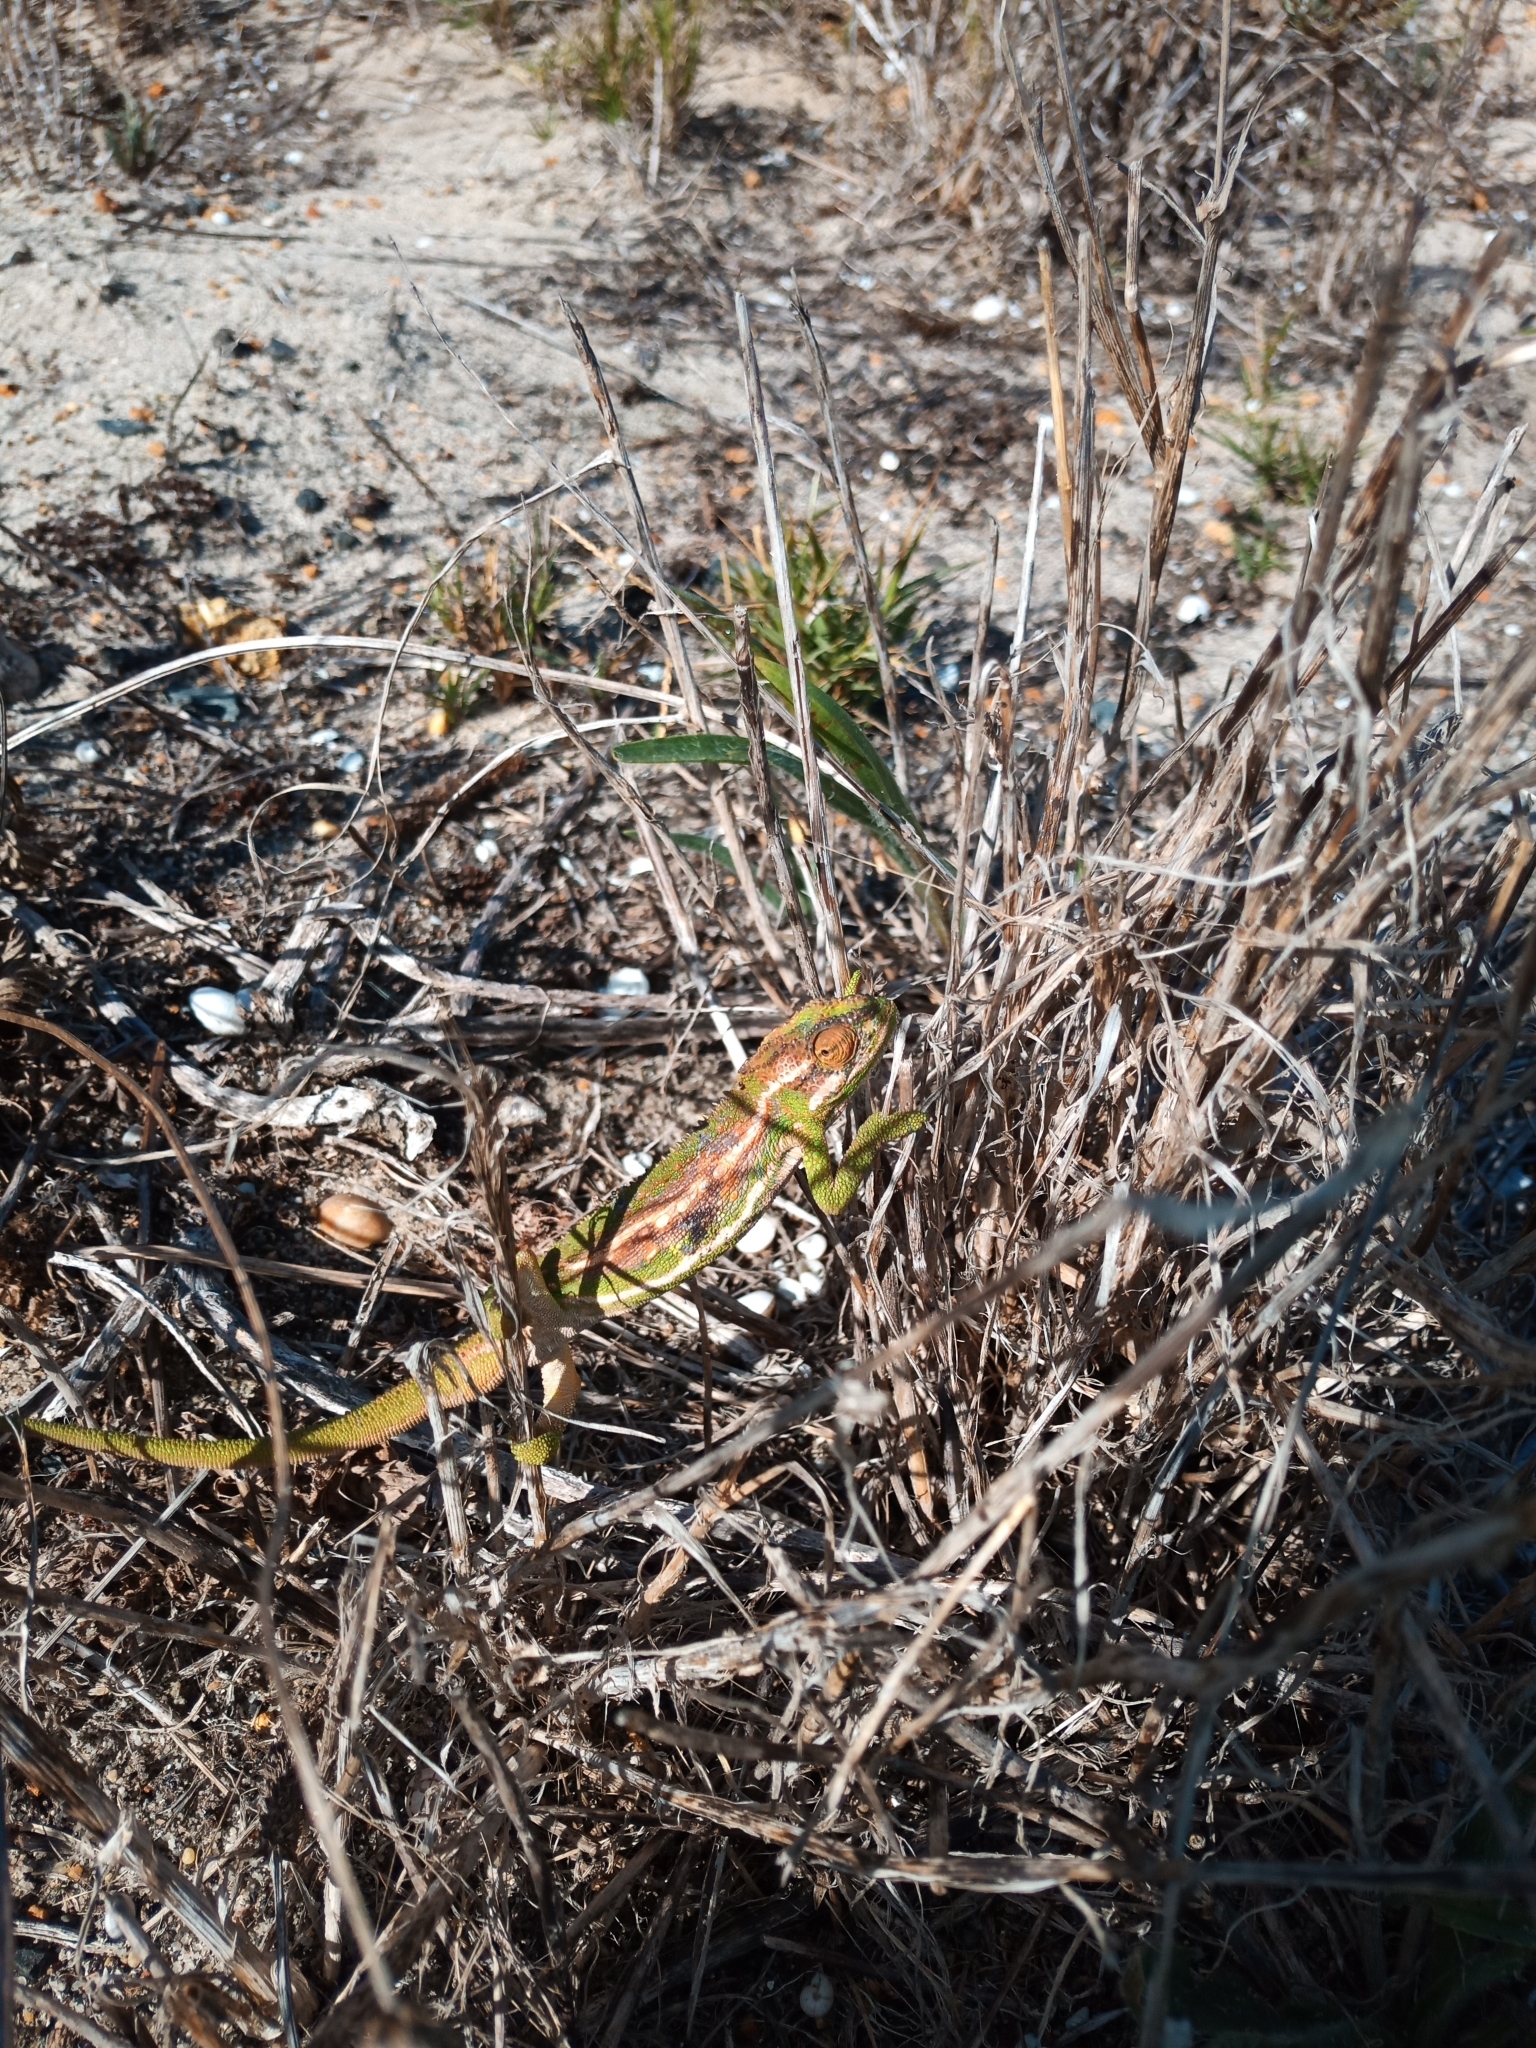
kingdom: Animalia
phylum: Chordata
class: Squamata
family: Chamaeleonidae
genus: Bradypodion
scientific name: Bradypodion pumilum
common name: Cape dwarf chameleon
